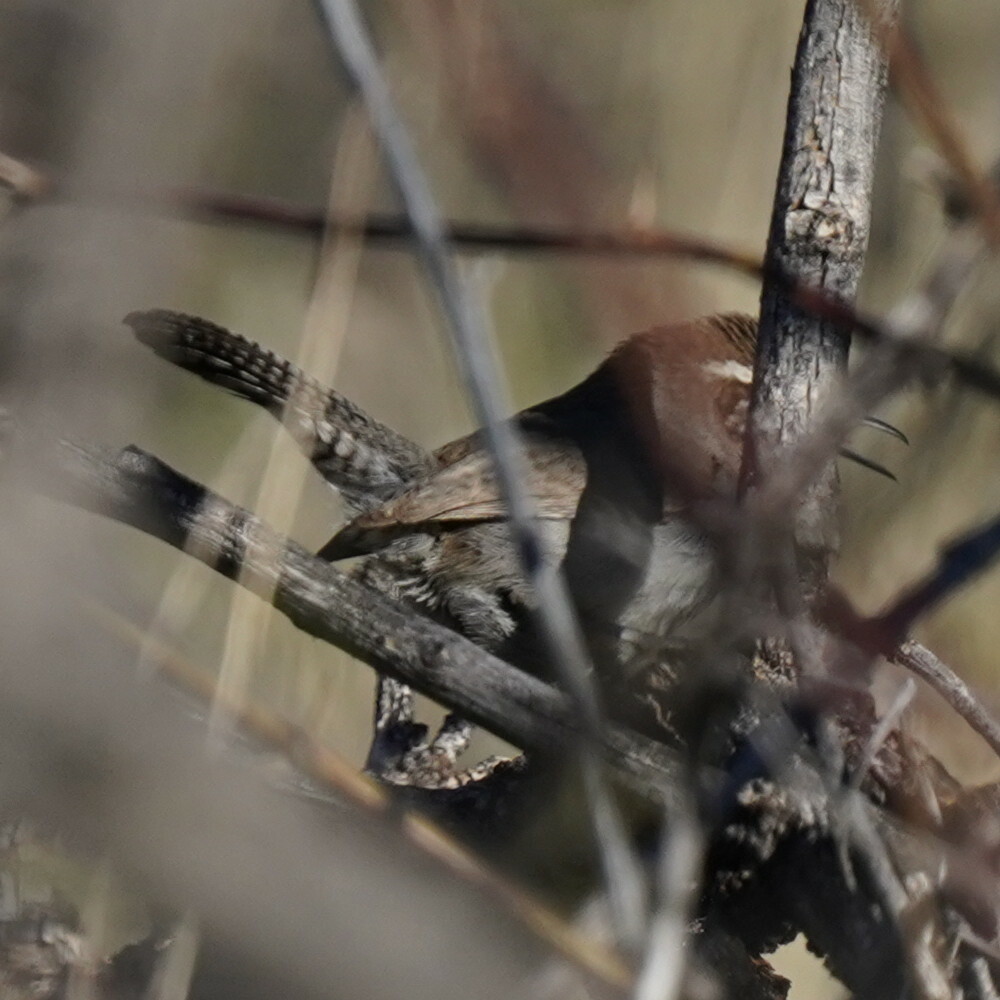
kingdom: Animalia
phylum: Chordata
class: Aves
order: Passeriformes
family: Troglodytidae
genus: Thryomanes
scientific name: Thryomanes bewickii
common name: Bewick's wren
